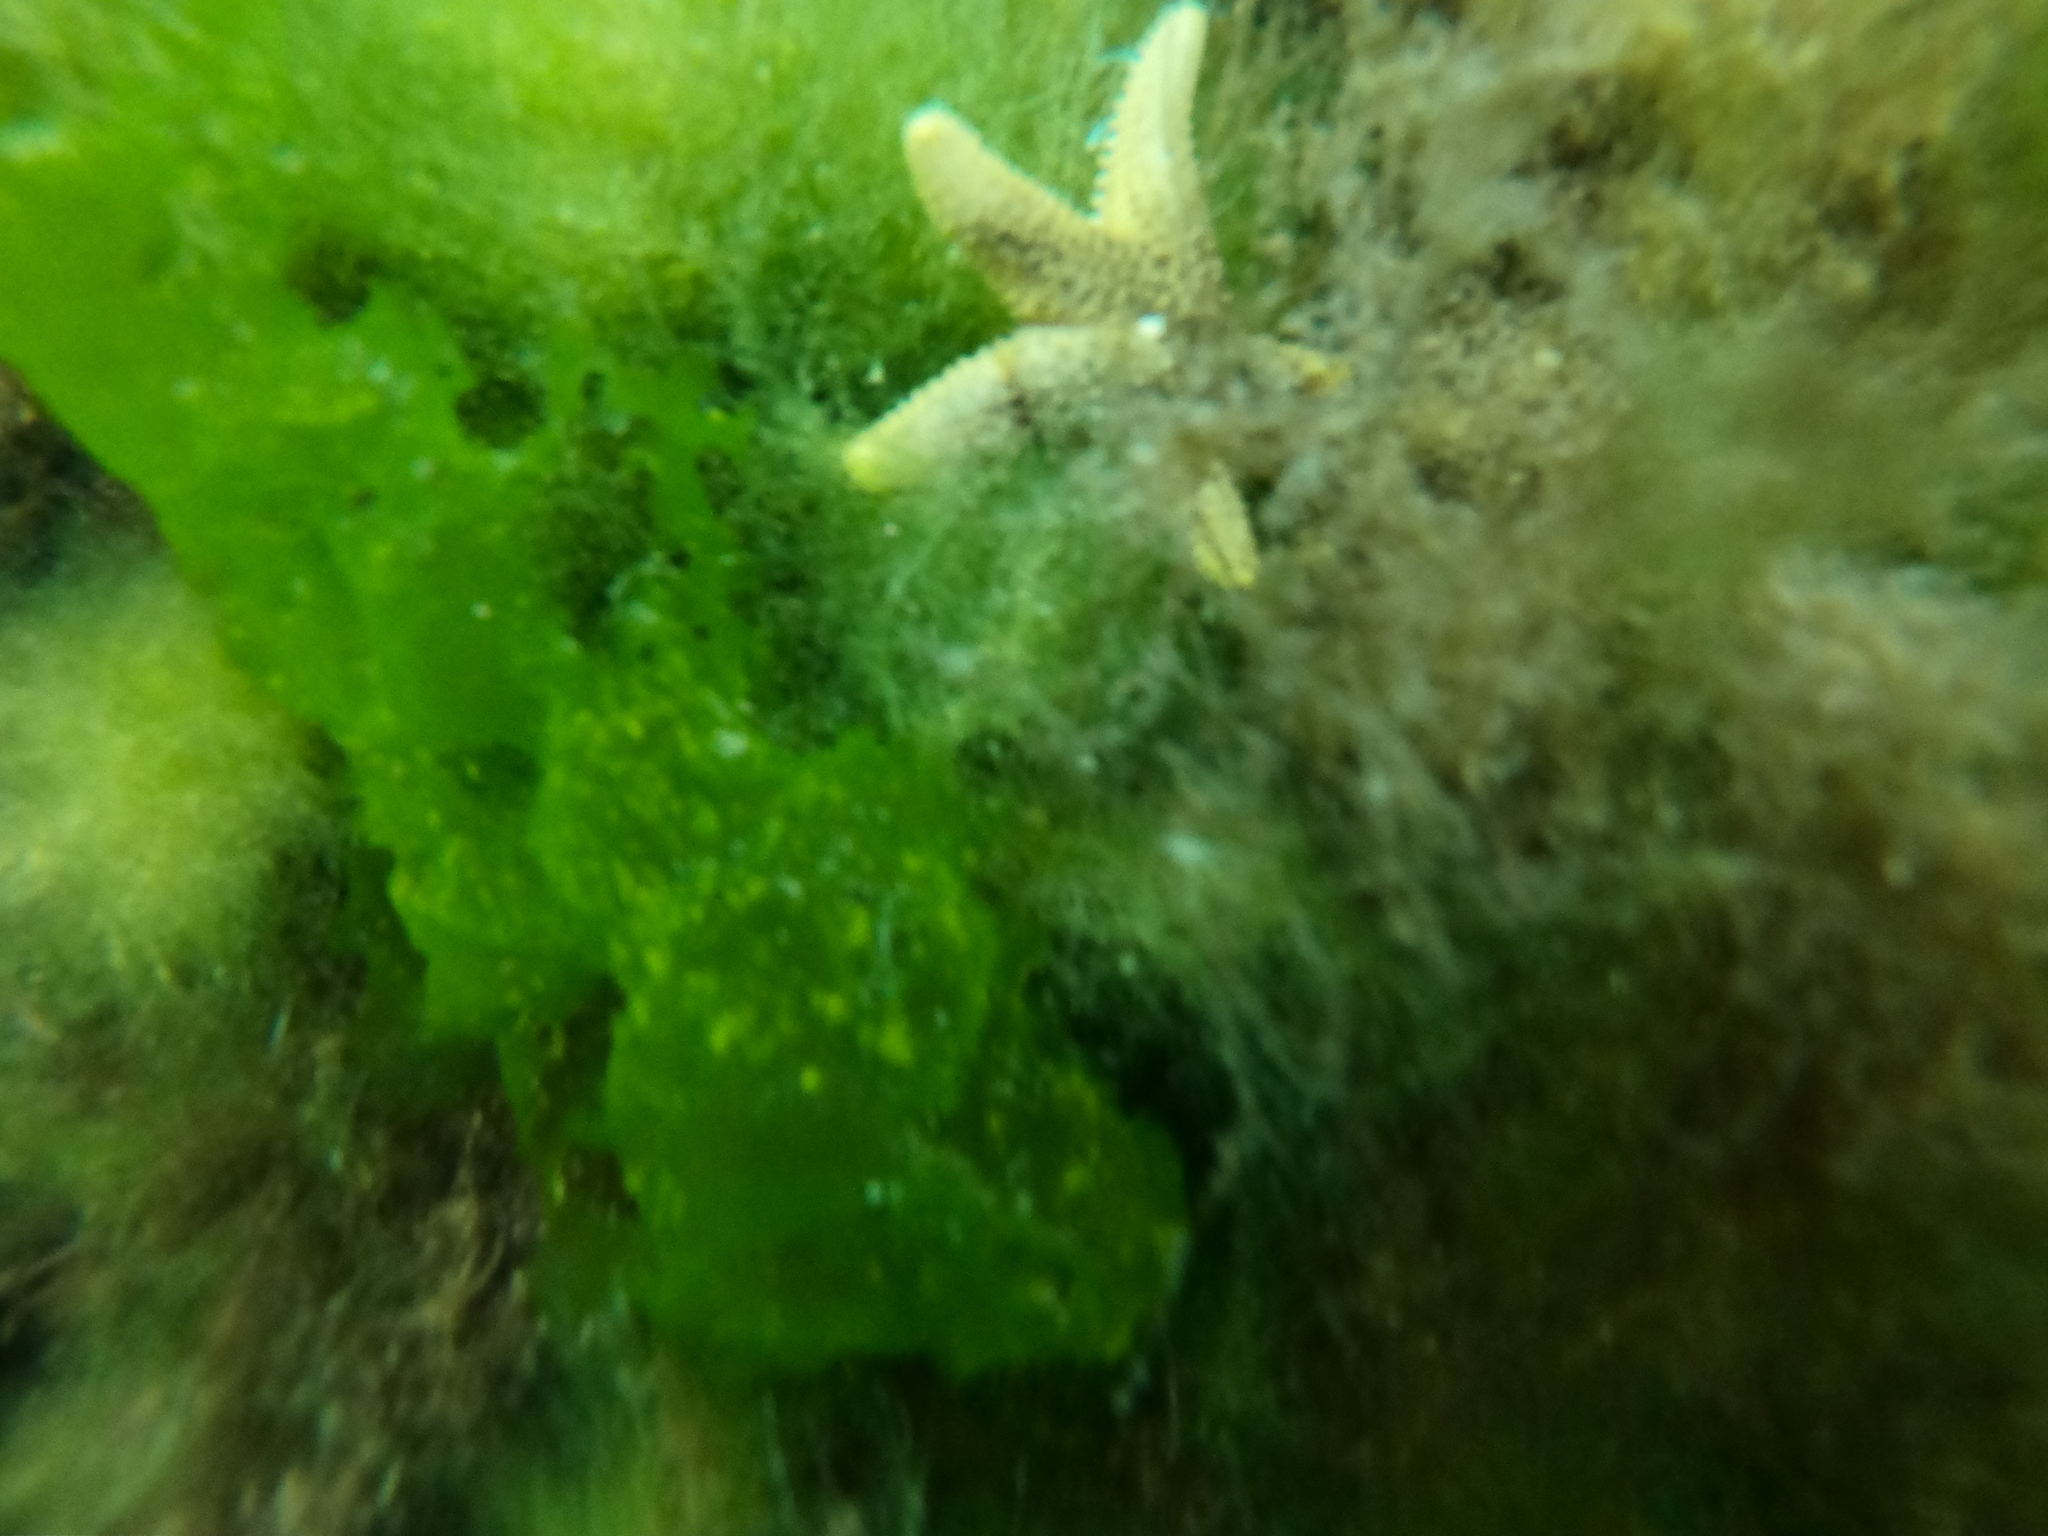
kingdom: Animalia
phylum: Echinodermata
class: Asteroidea
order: Forcipulatida
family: Asteriidae
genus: Anasterias
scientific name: Anasterias antarctica
